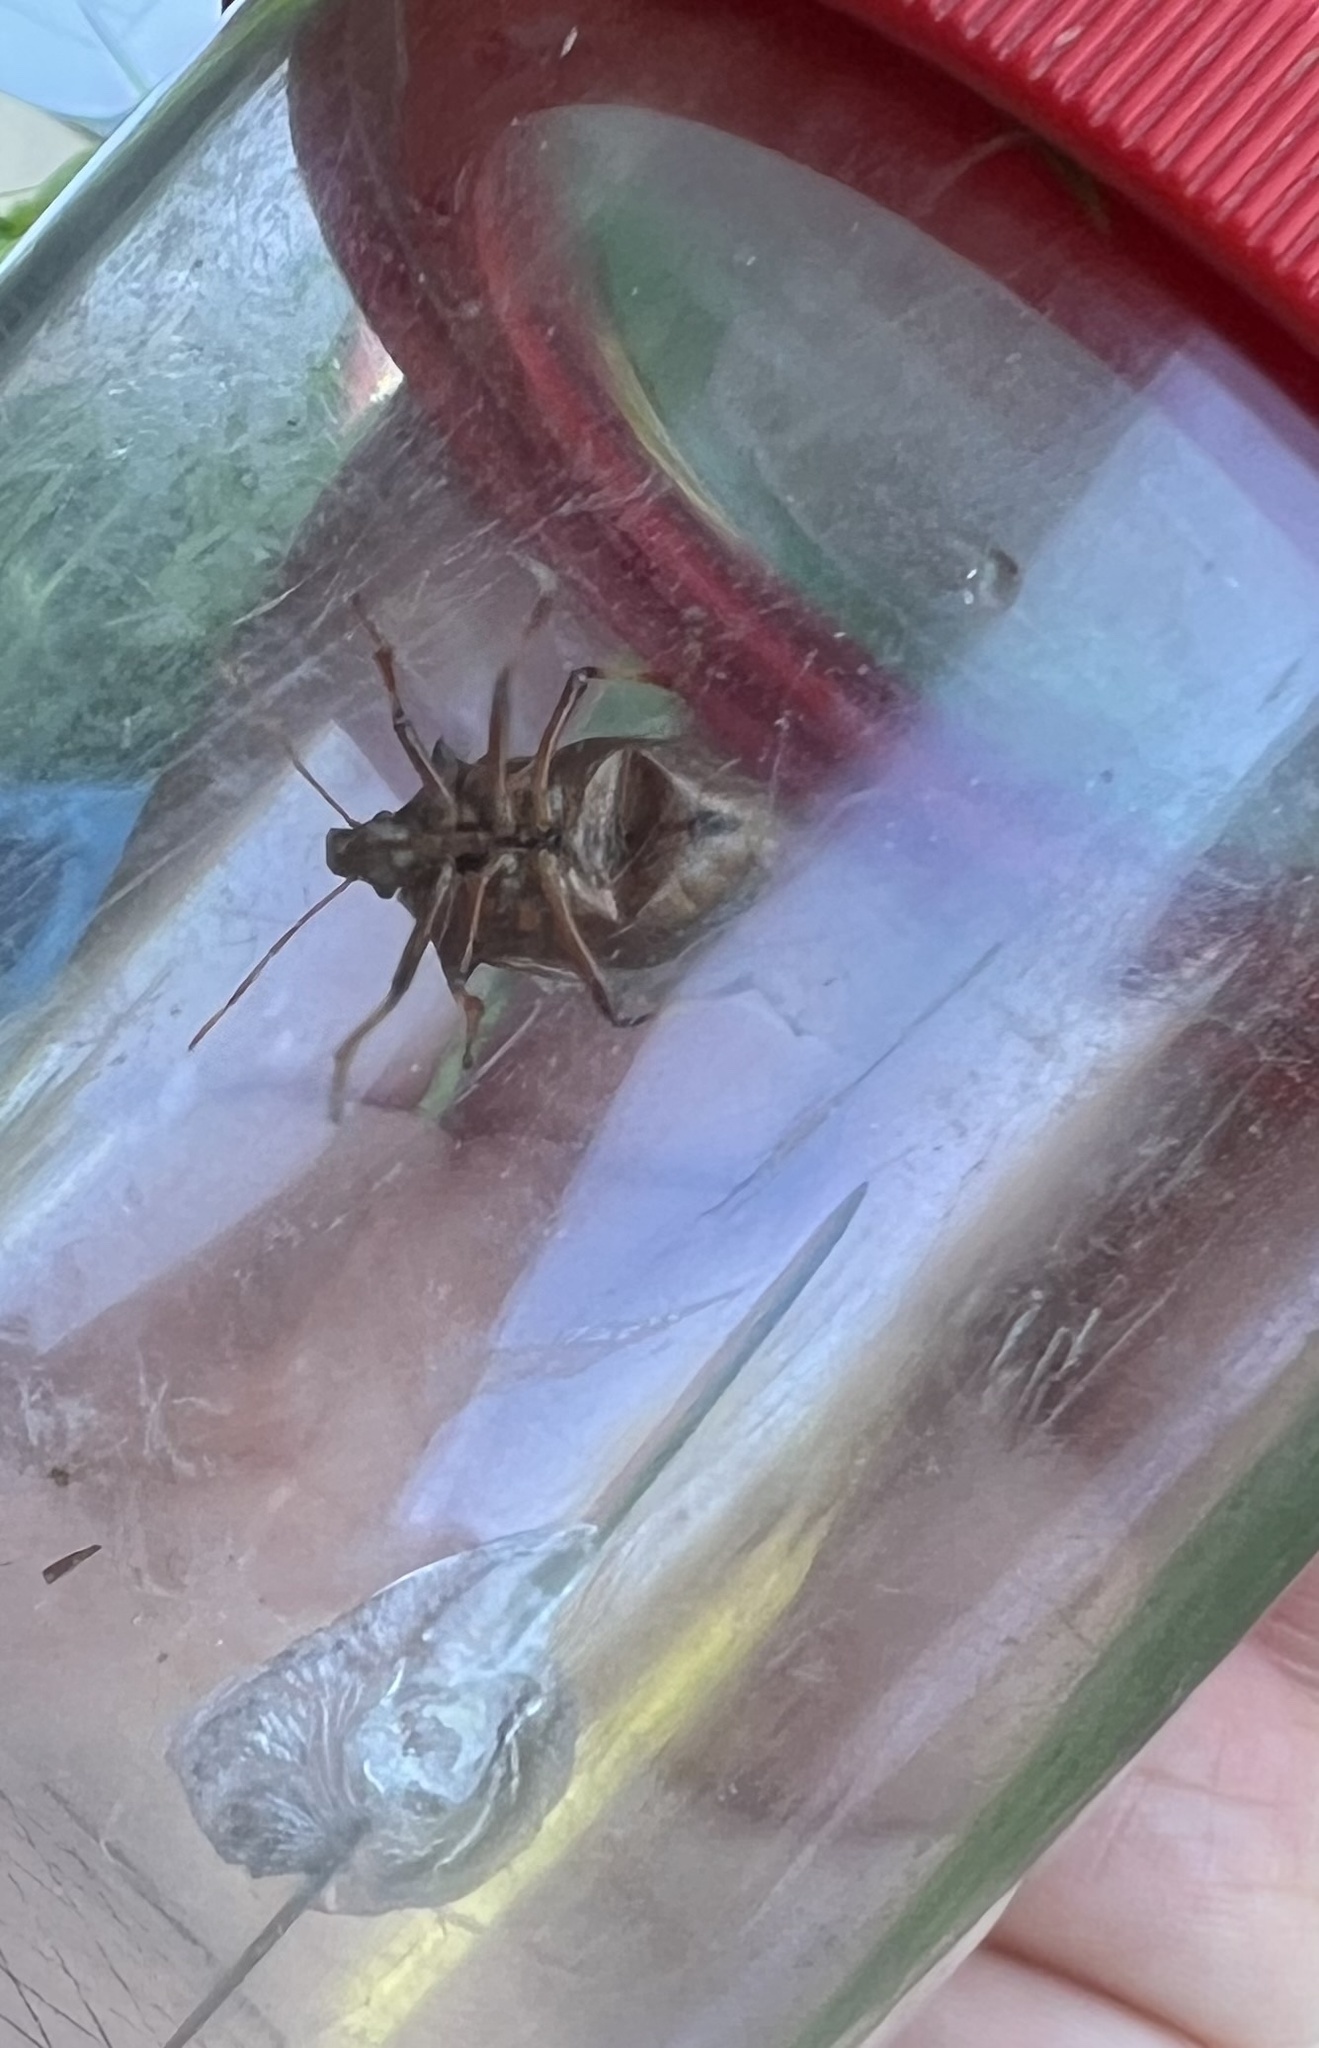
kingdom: Animalia
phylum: Arthropoda
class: Insecta
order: Hemiptera
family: Pentatomidae
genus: Picromerus
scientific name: Picromerus bidens
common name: Spiked shieldbug
